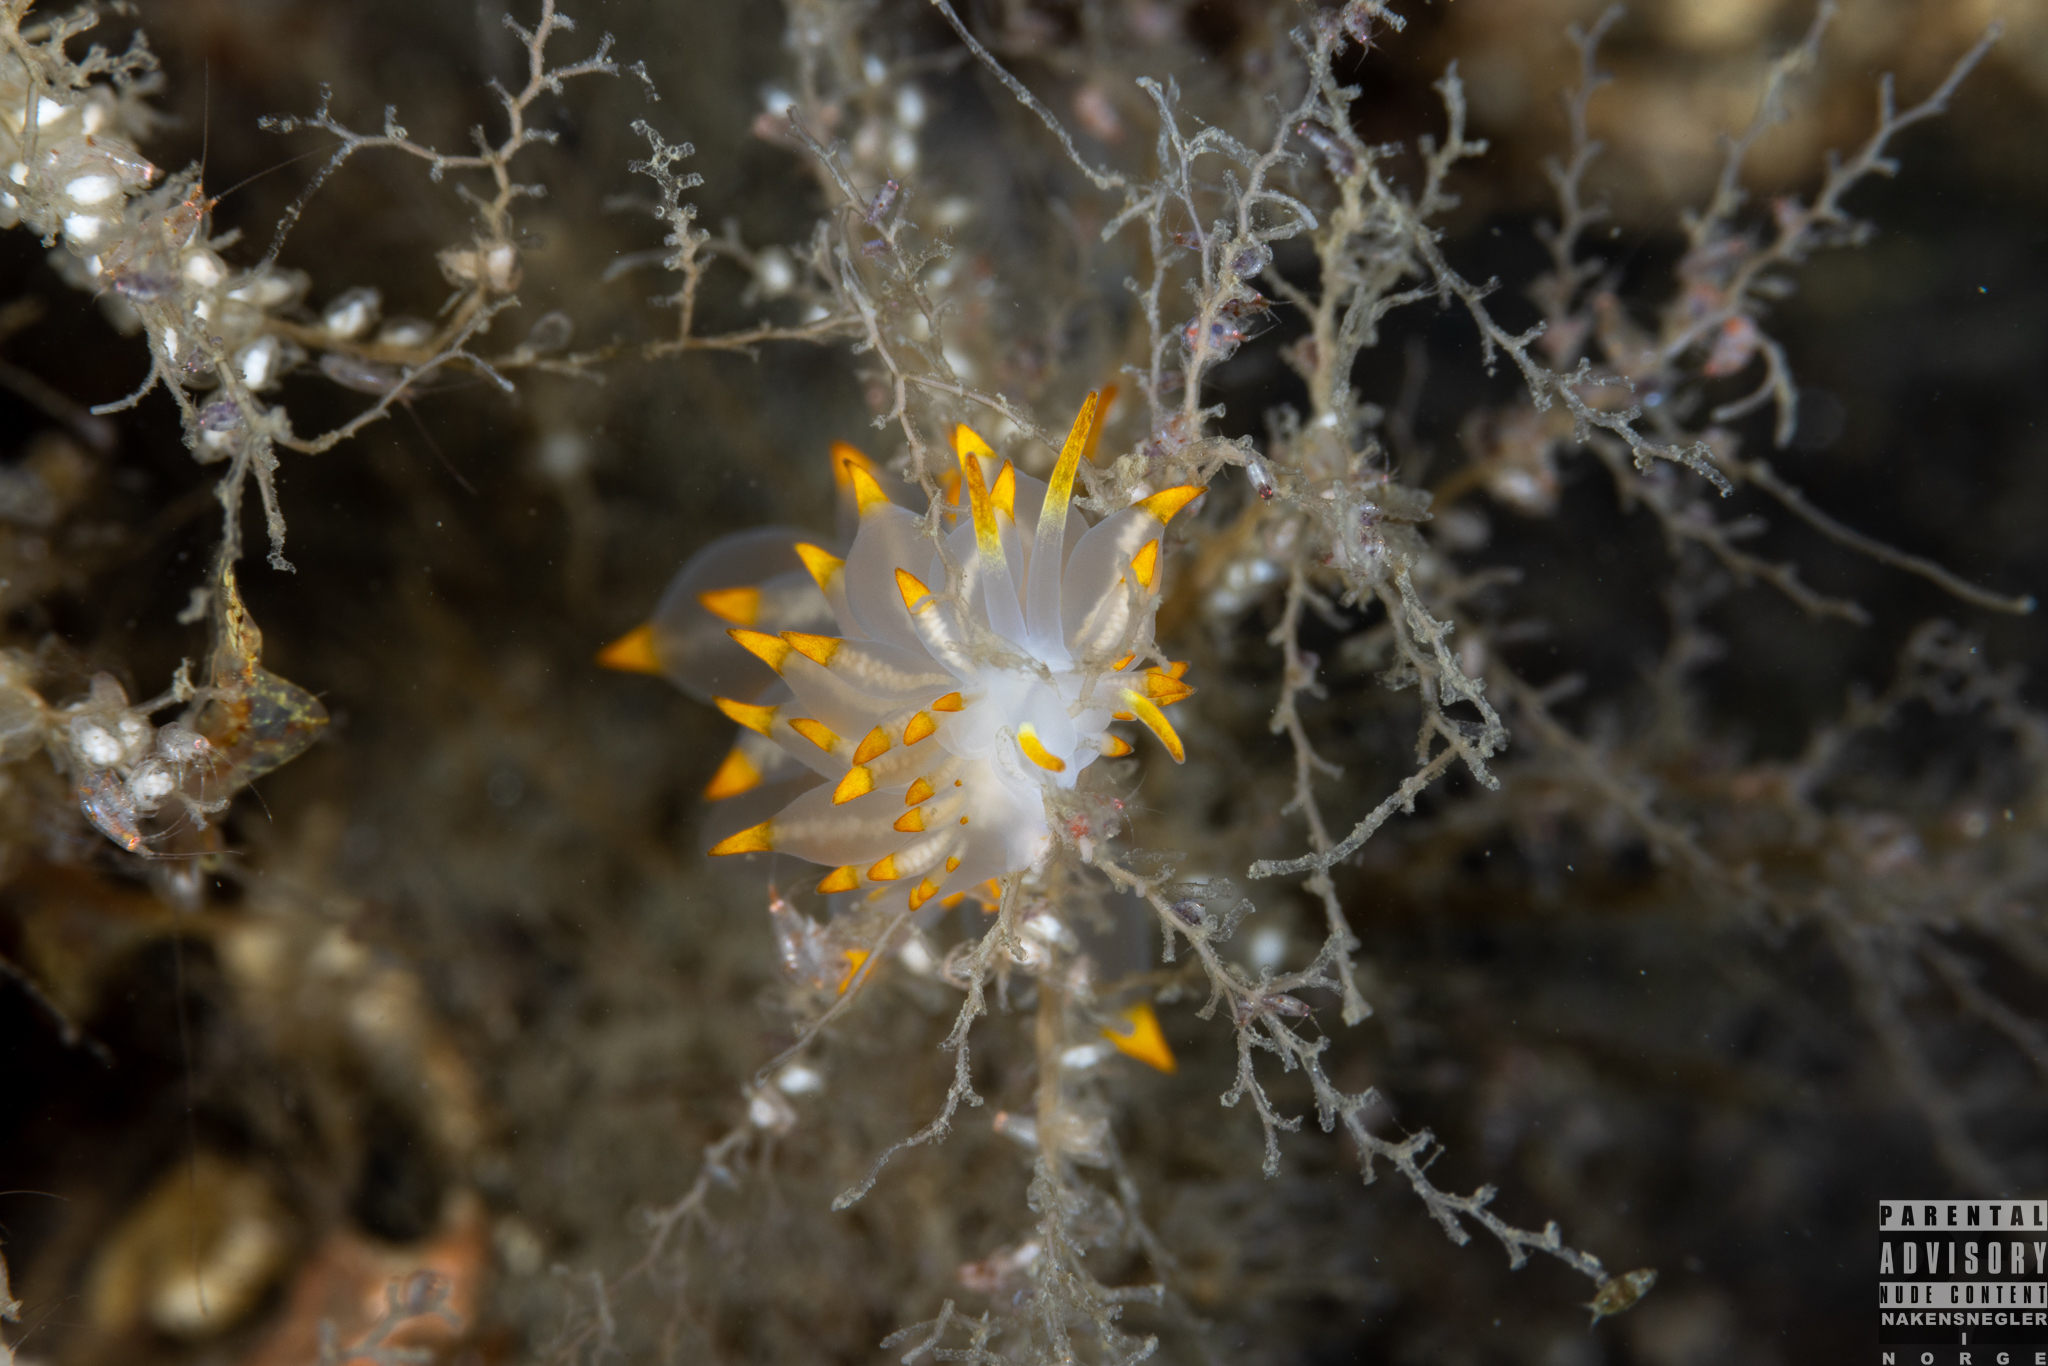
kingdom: Animalia
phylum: Mollusca
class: Gastropoda
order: Nudibranchia
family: Eubranchidae
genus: Amphorina
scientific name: Amphorina farrani
